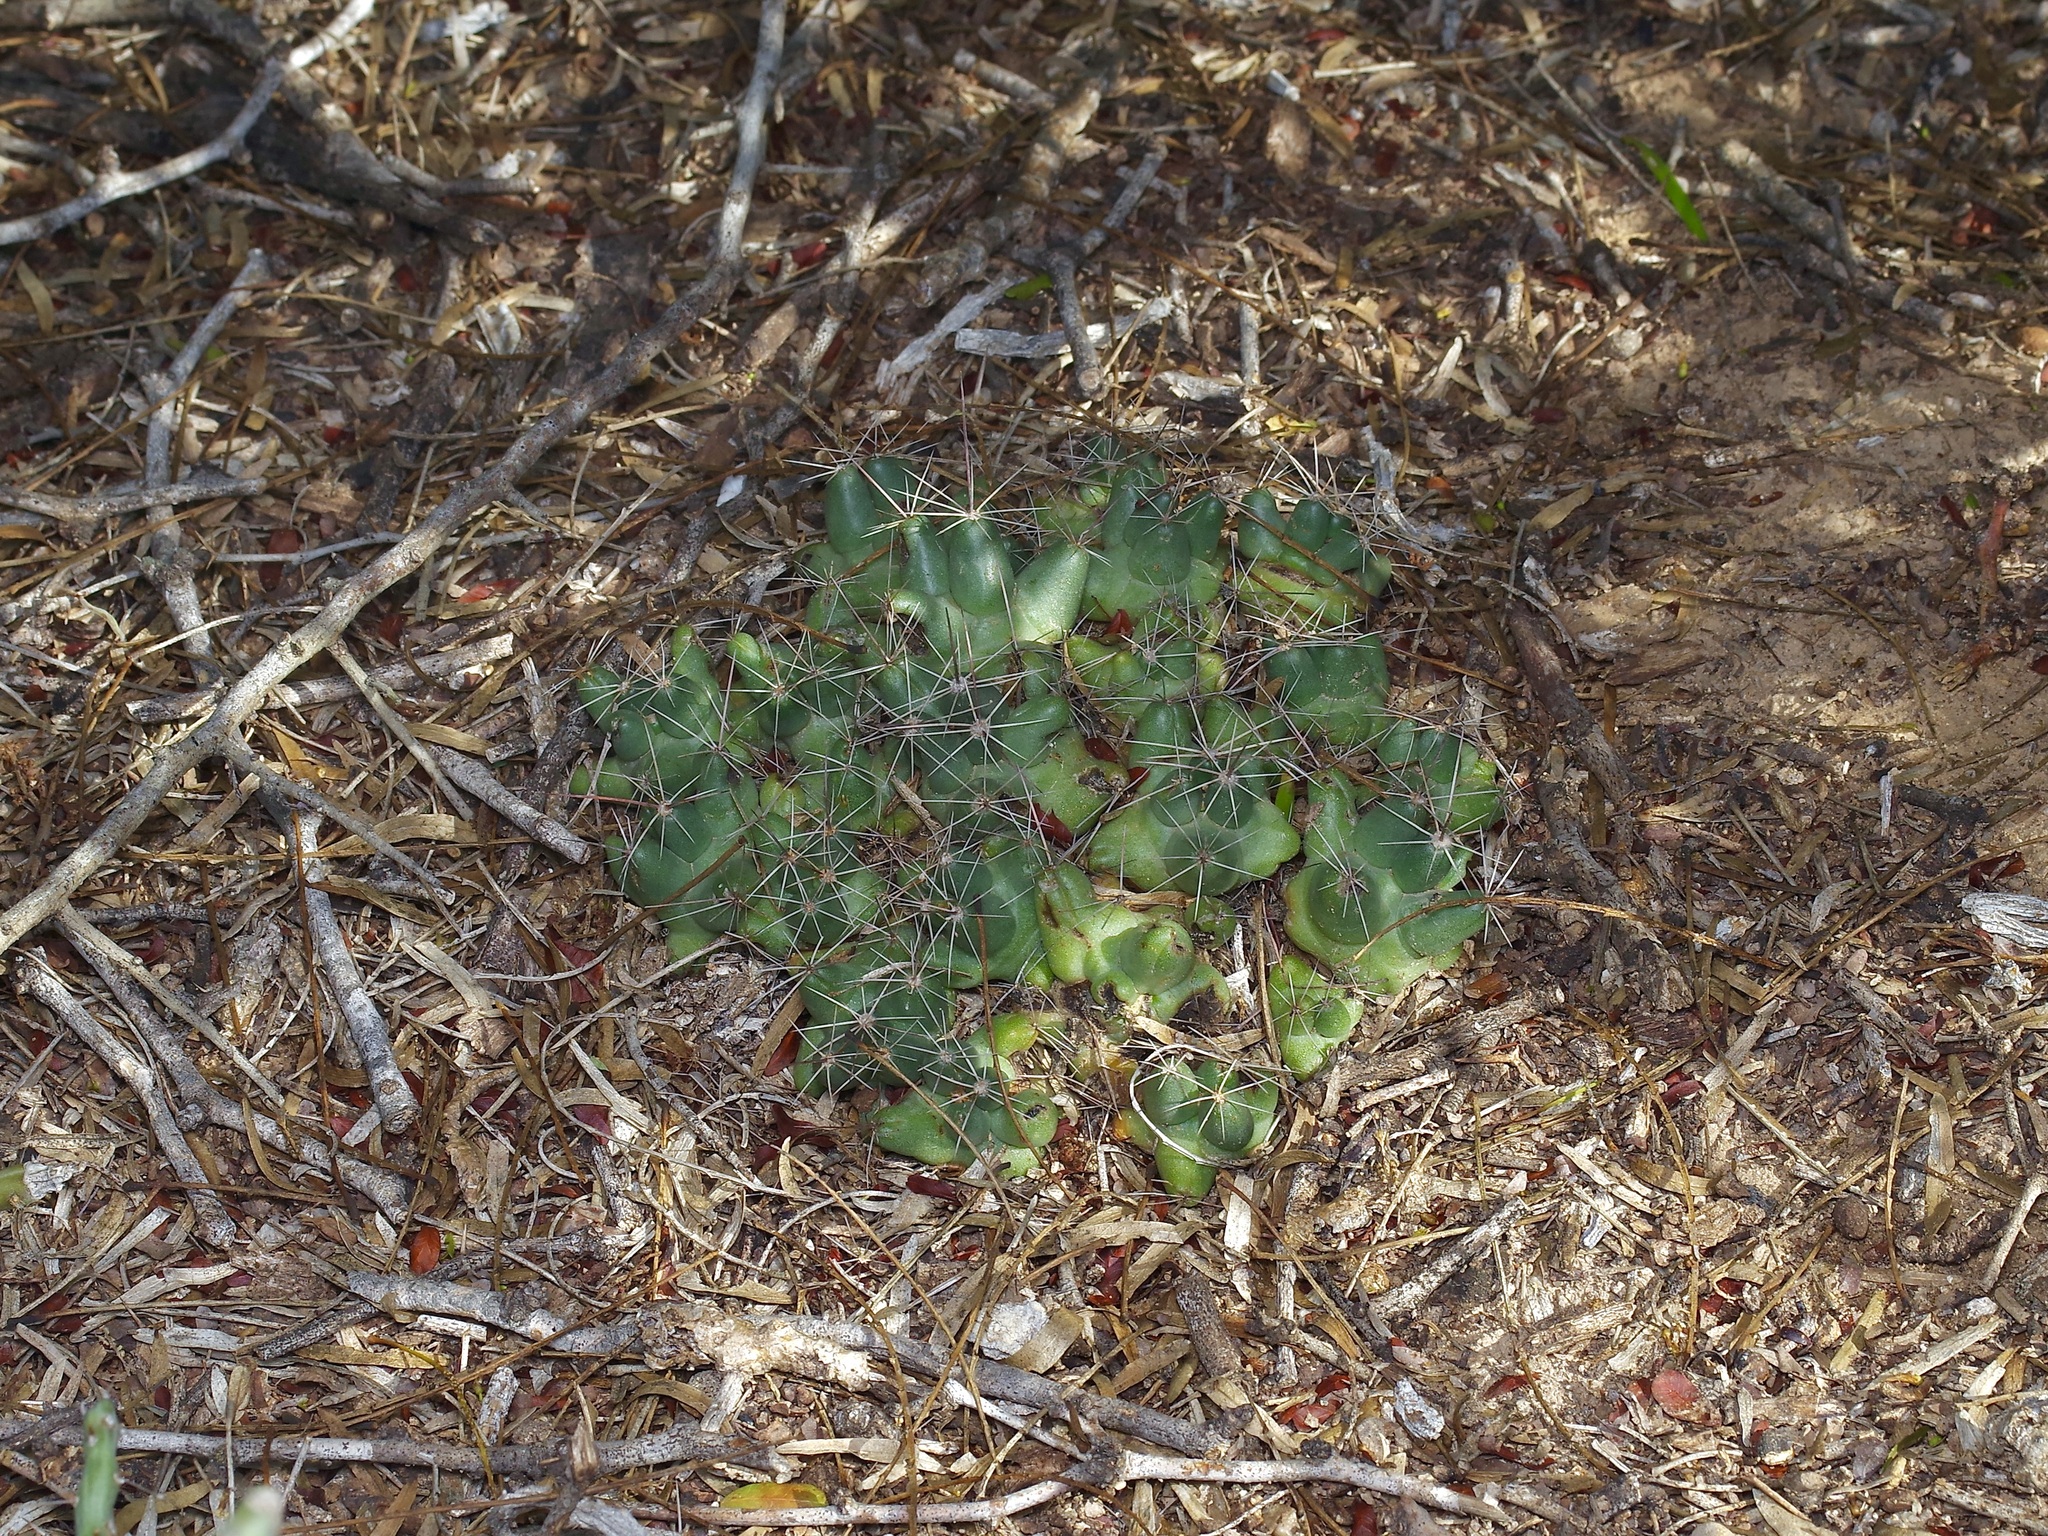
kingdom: Plantae
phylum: Tracheophyta
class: Magnoliopsida
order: Caryophyllales
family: Cactaceae
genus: Coryphantha
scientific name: Coryphantha macromeris
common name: Nipple beehive cactus
